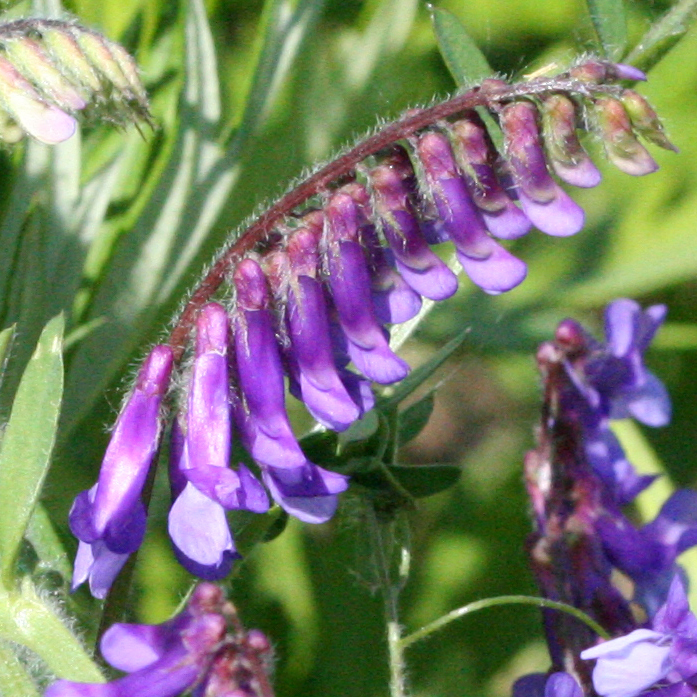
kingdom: Plantae
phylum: Tracheophyta
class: Magnoliopsida
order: Fabales
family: Fabaceae
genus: Vicia
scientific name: Vicia villosa
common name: Fodder vetch
